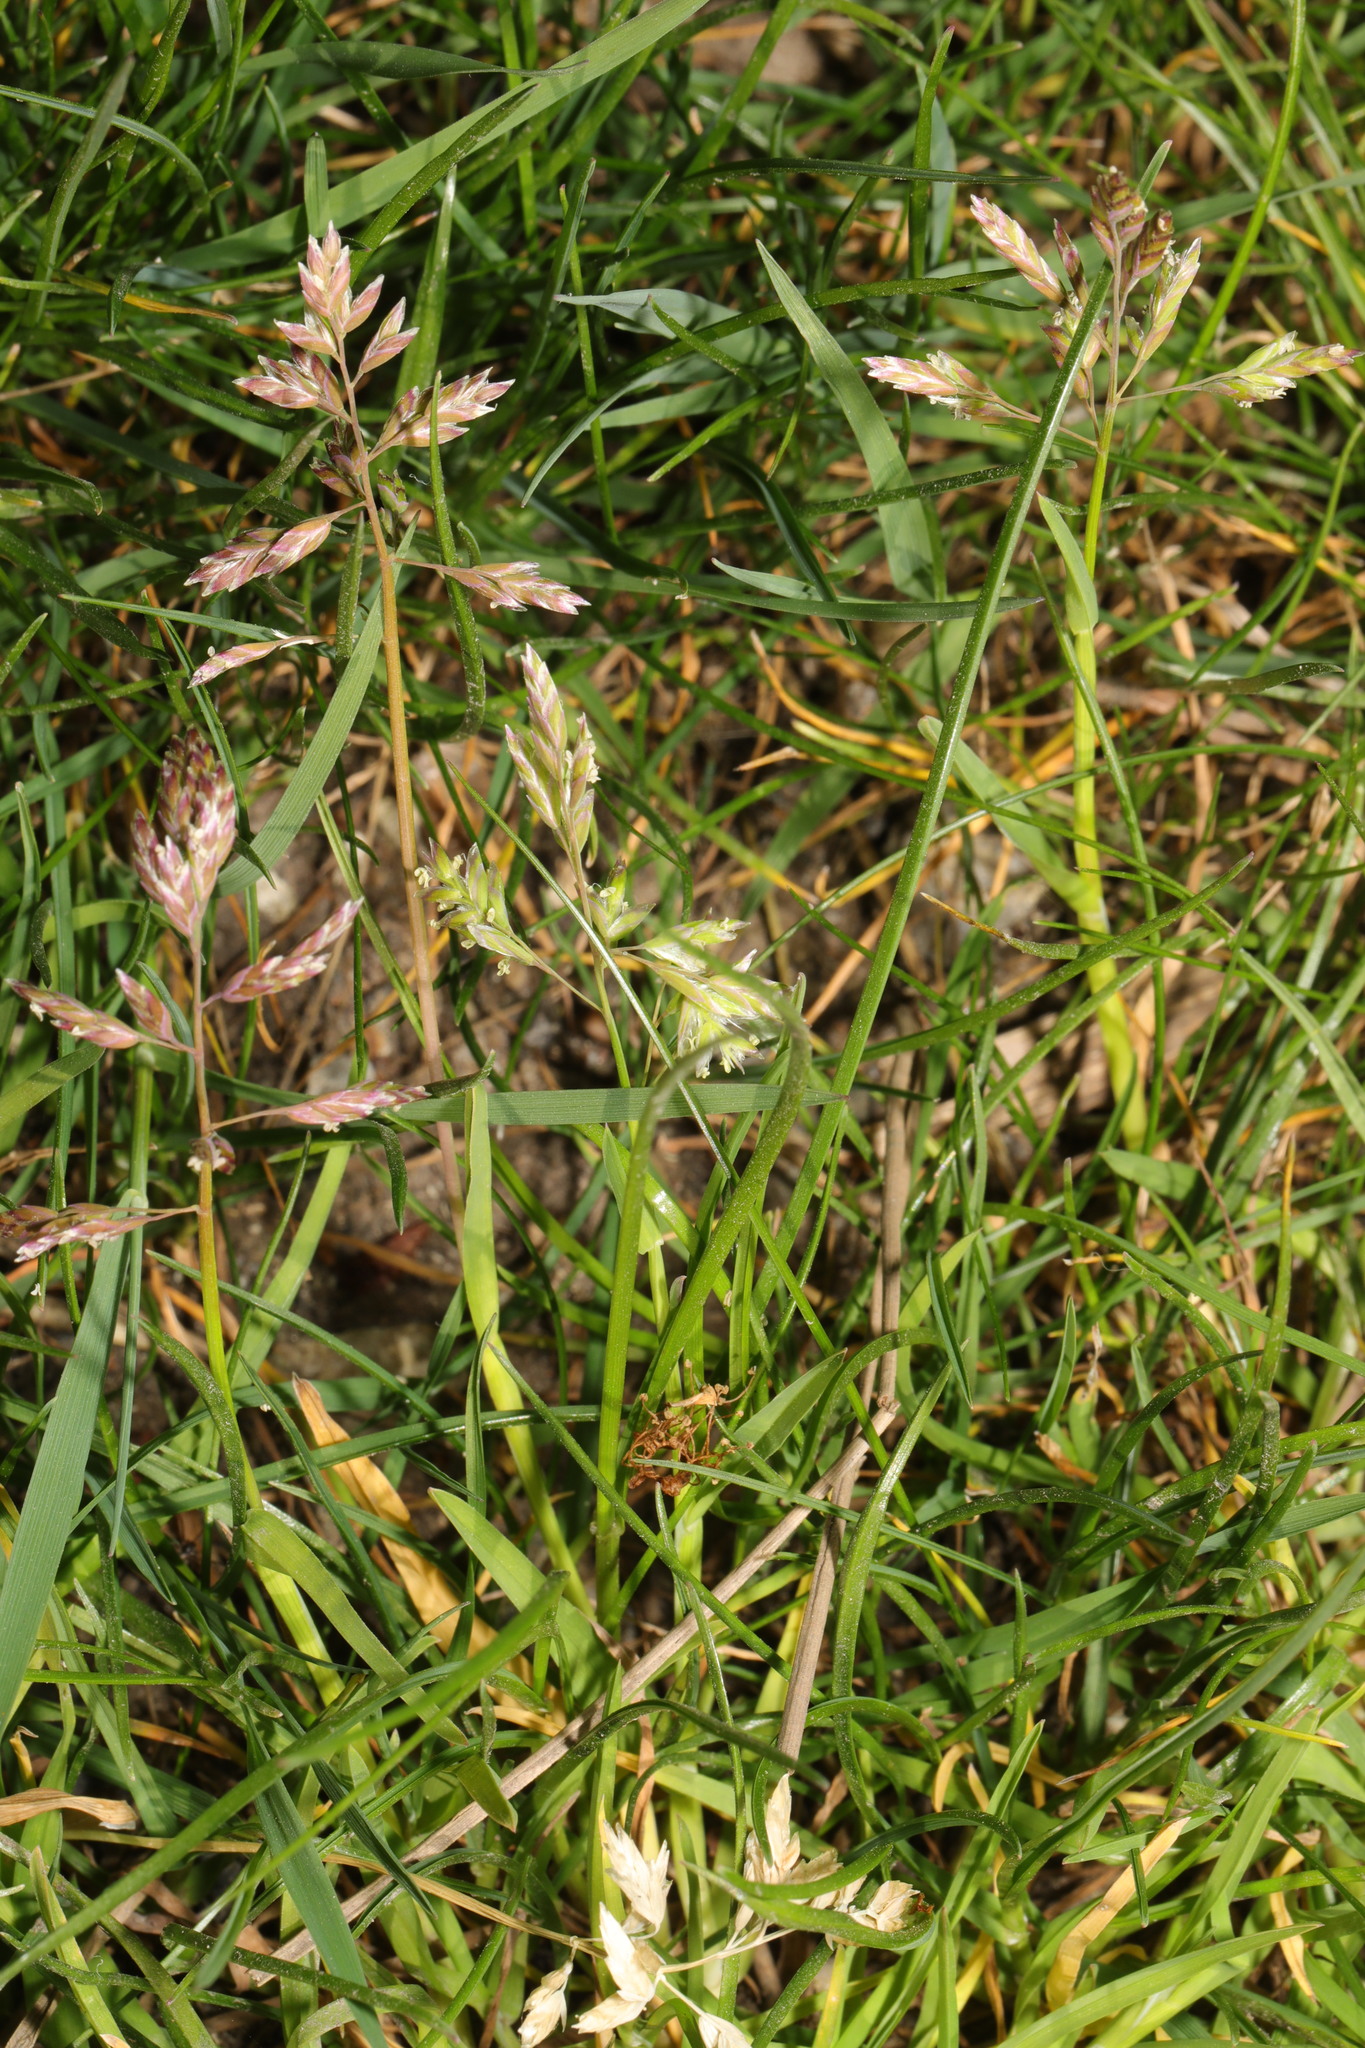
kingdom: Plantae
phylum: Tracheophyta
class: Liliopsida
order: Poales
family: Poaceae
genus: Poa
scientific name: Poa annua
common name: Annual bluegrass
